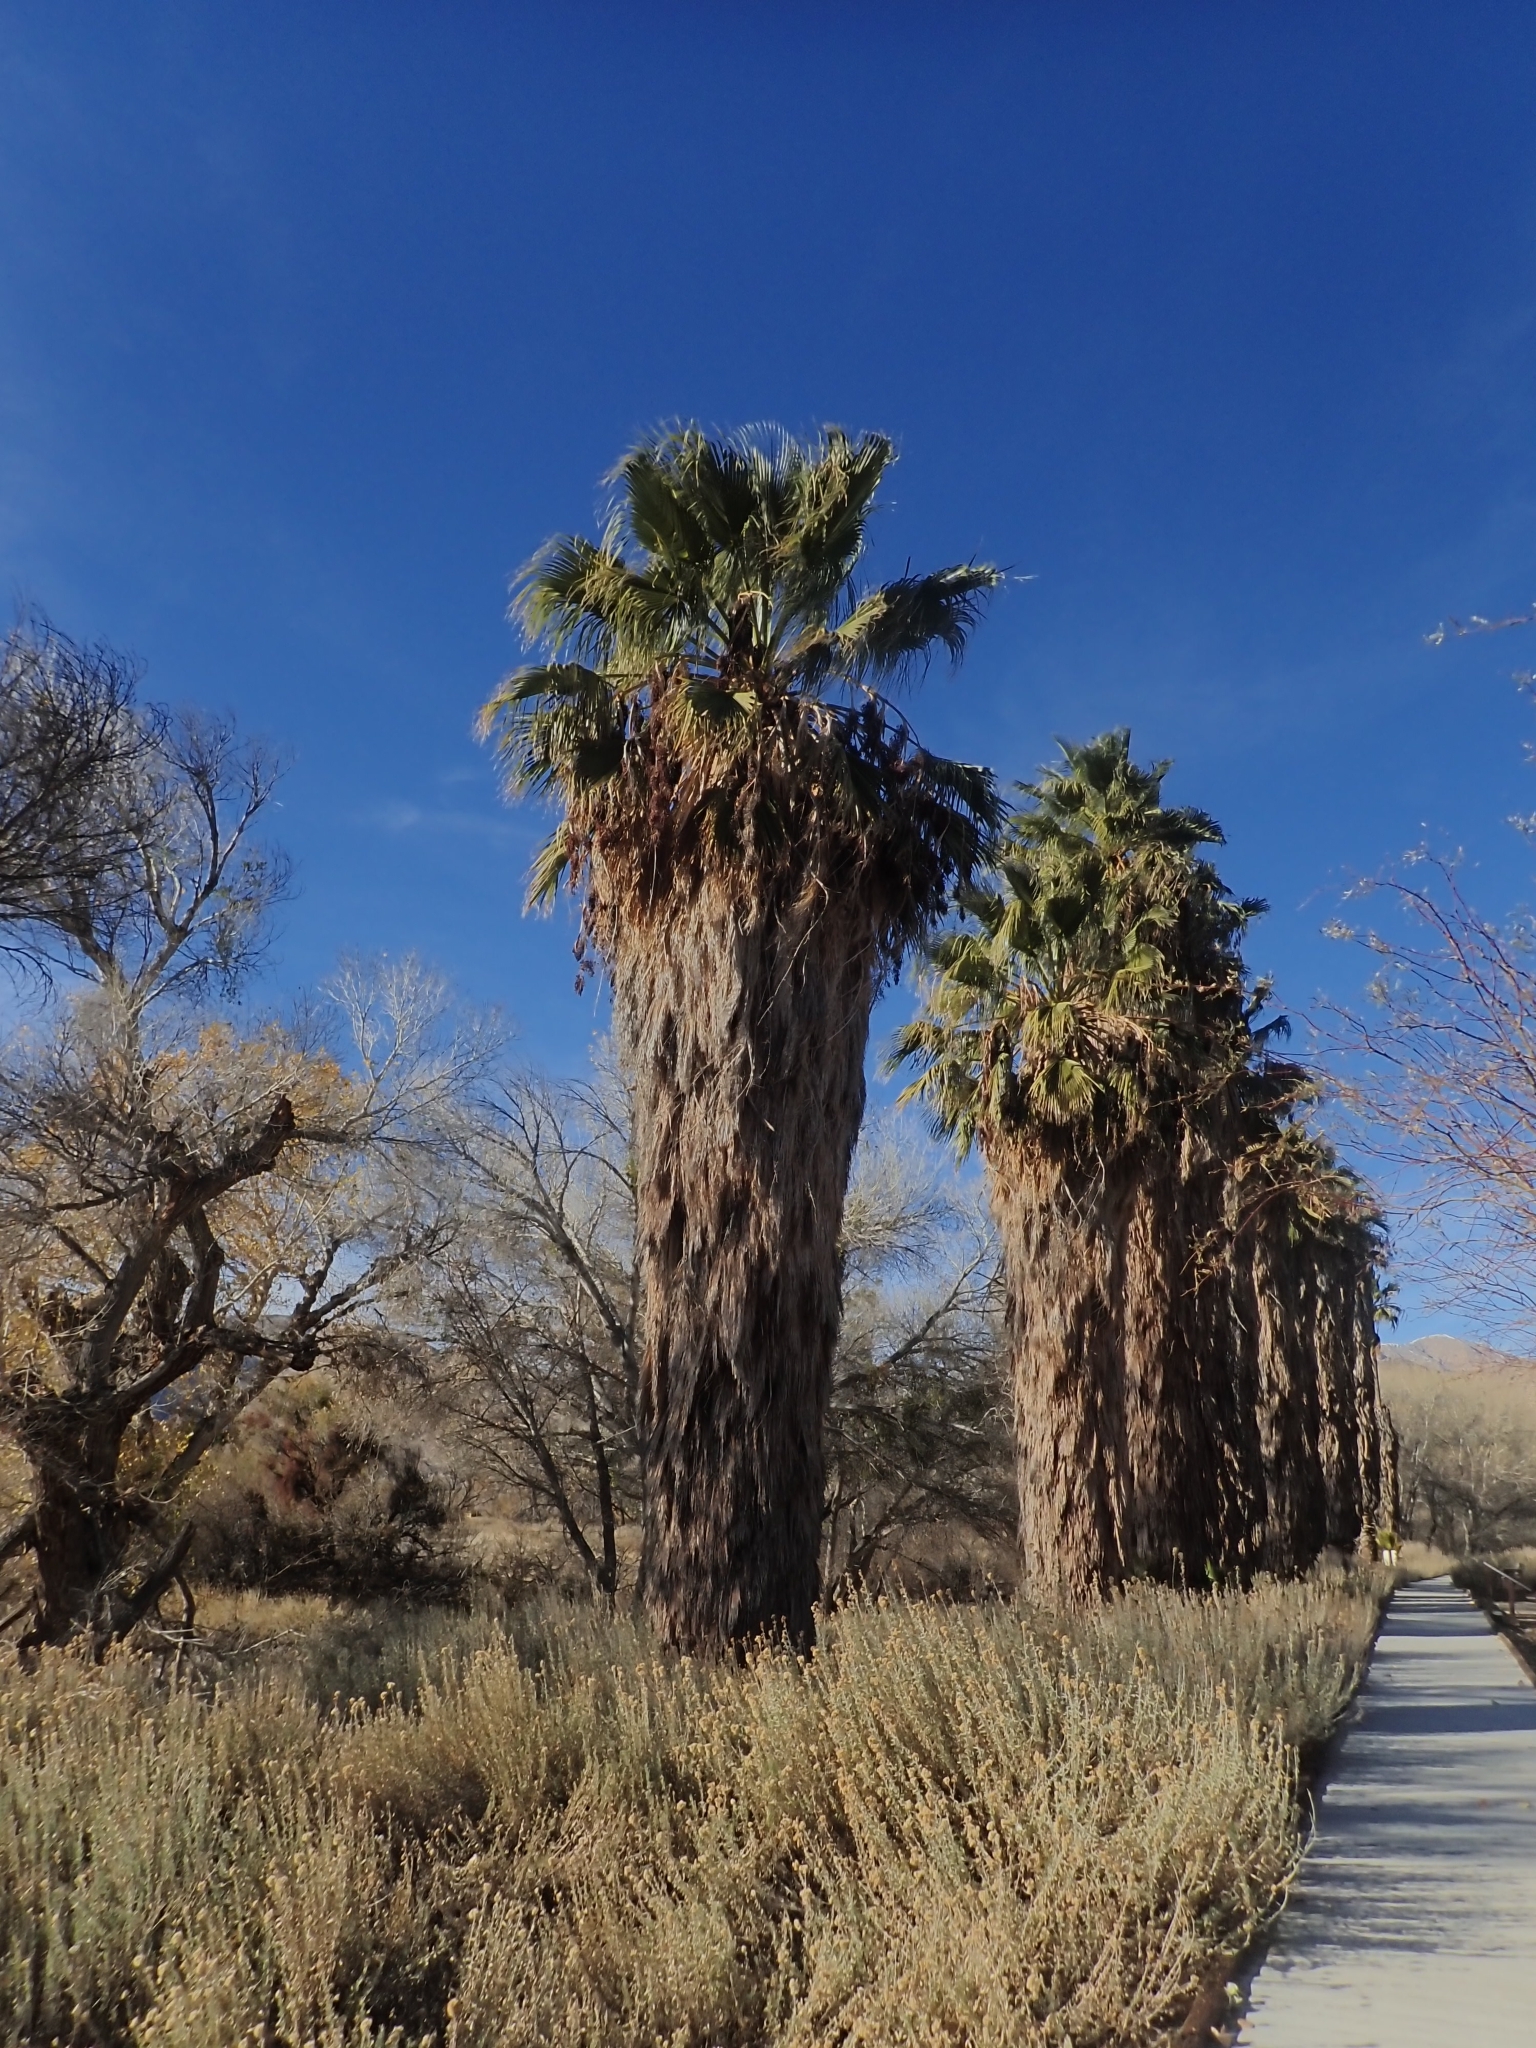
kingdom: Plantae
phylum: Tracheophyta
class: Liliopsida
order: Arecales
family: Arecaceae
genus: Washingtonia
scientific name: Washingtonia filifera
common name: California fan palm
